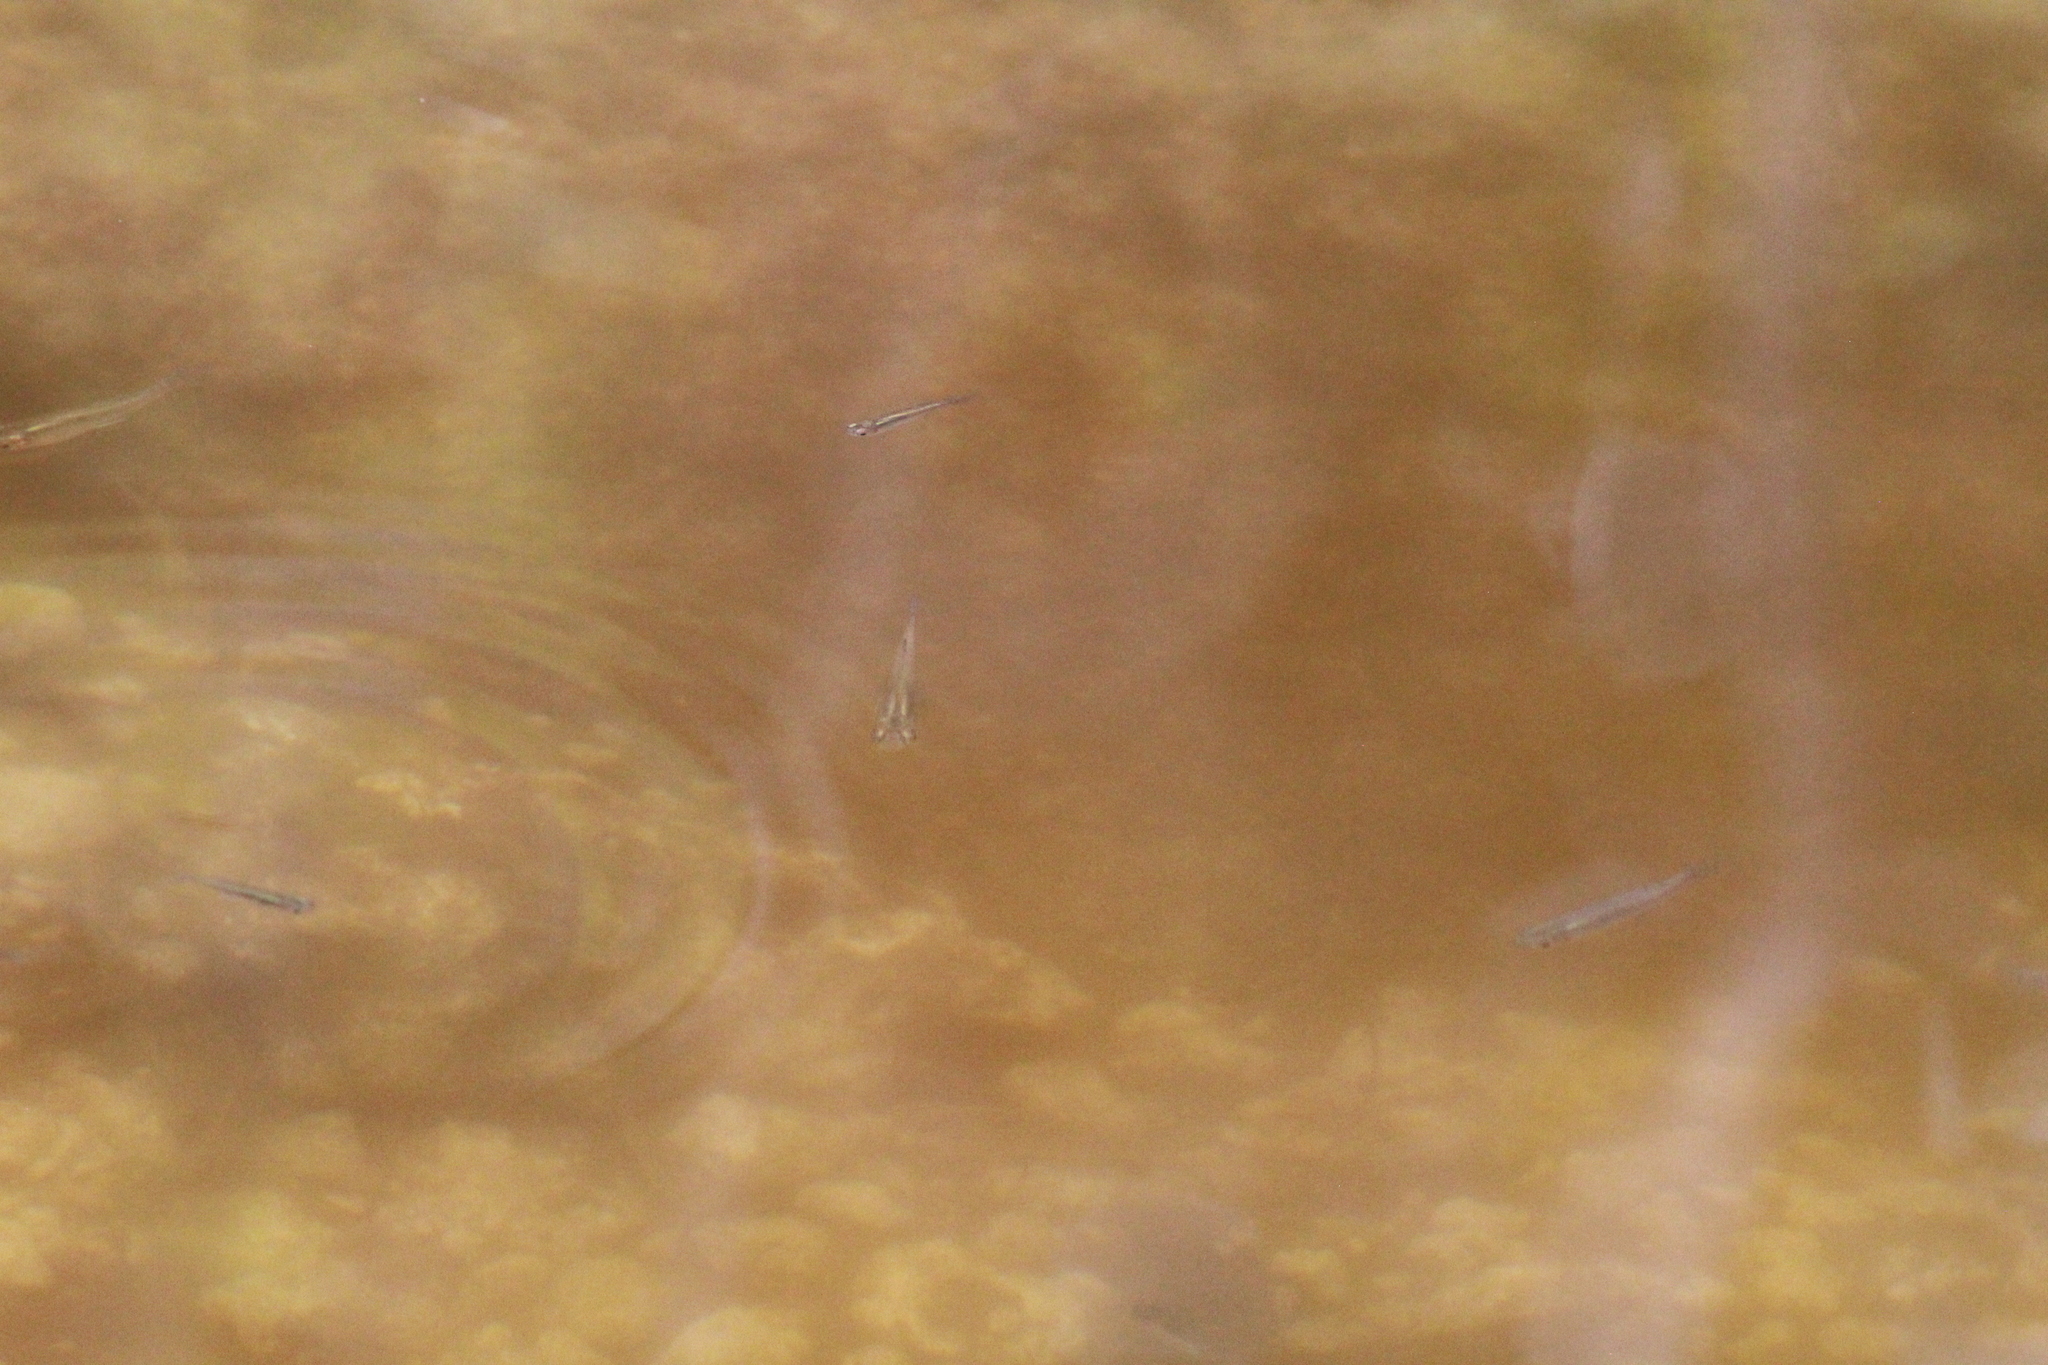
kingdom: Animalia
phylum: Chordata
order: Cyprinodontiformes
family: Poeciliidae
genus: Gambusia
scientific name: Gambusia holbrooki
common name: Eastern mosquitofish
